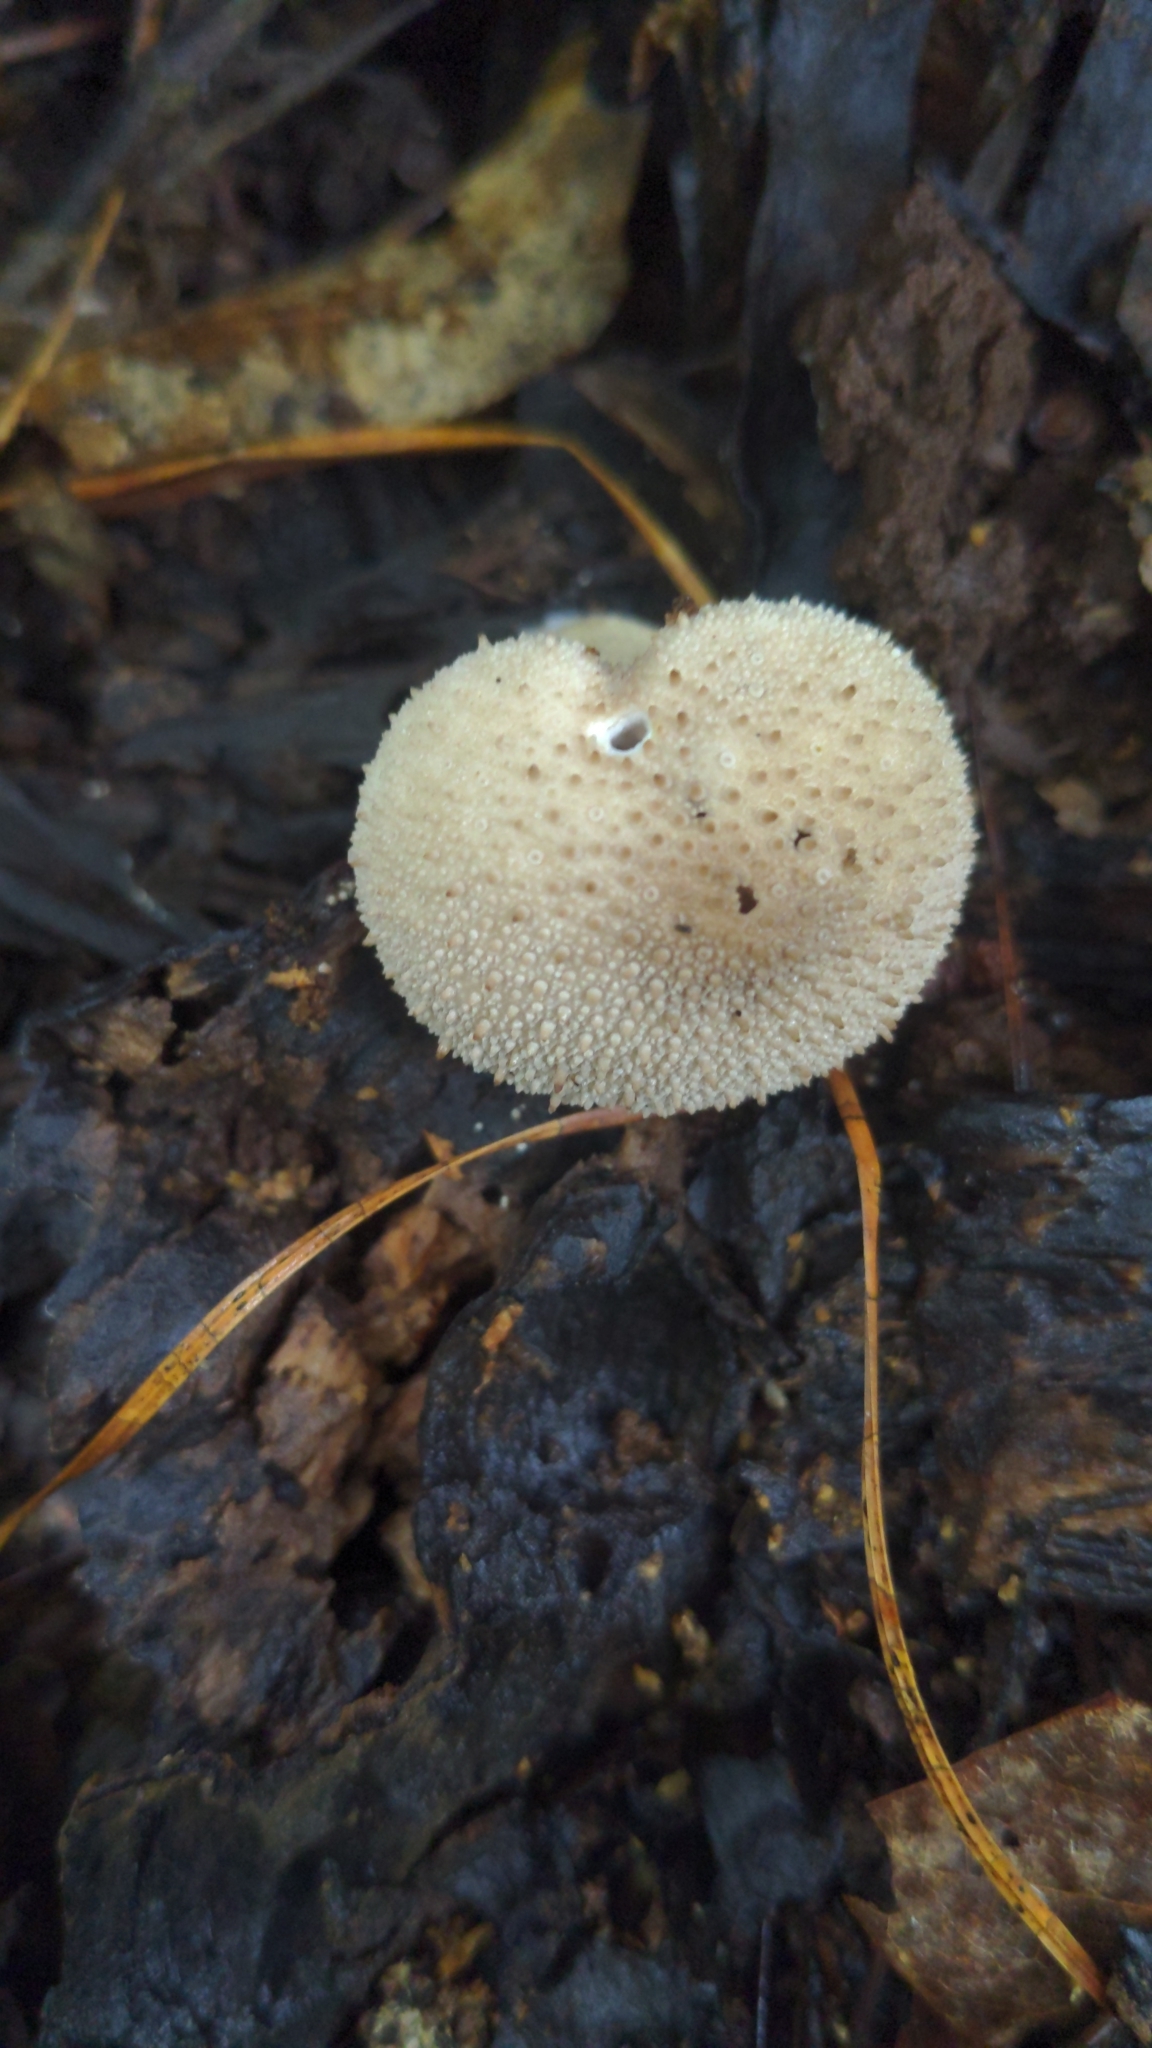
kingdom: Fungi
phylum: Basidiomycota
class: Agaricomycetes
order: Agaricales
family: Lycoperdaceae
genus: Lycoperdon
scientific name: Lycoperdon perlatum
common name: Common puffball
